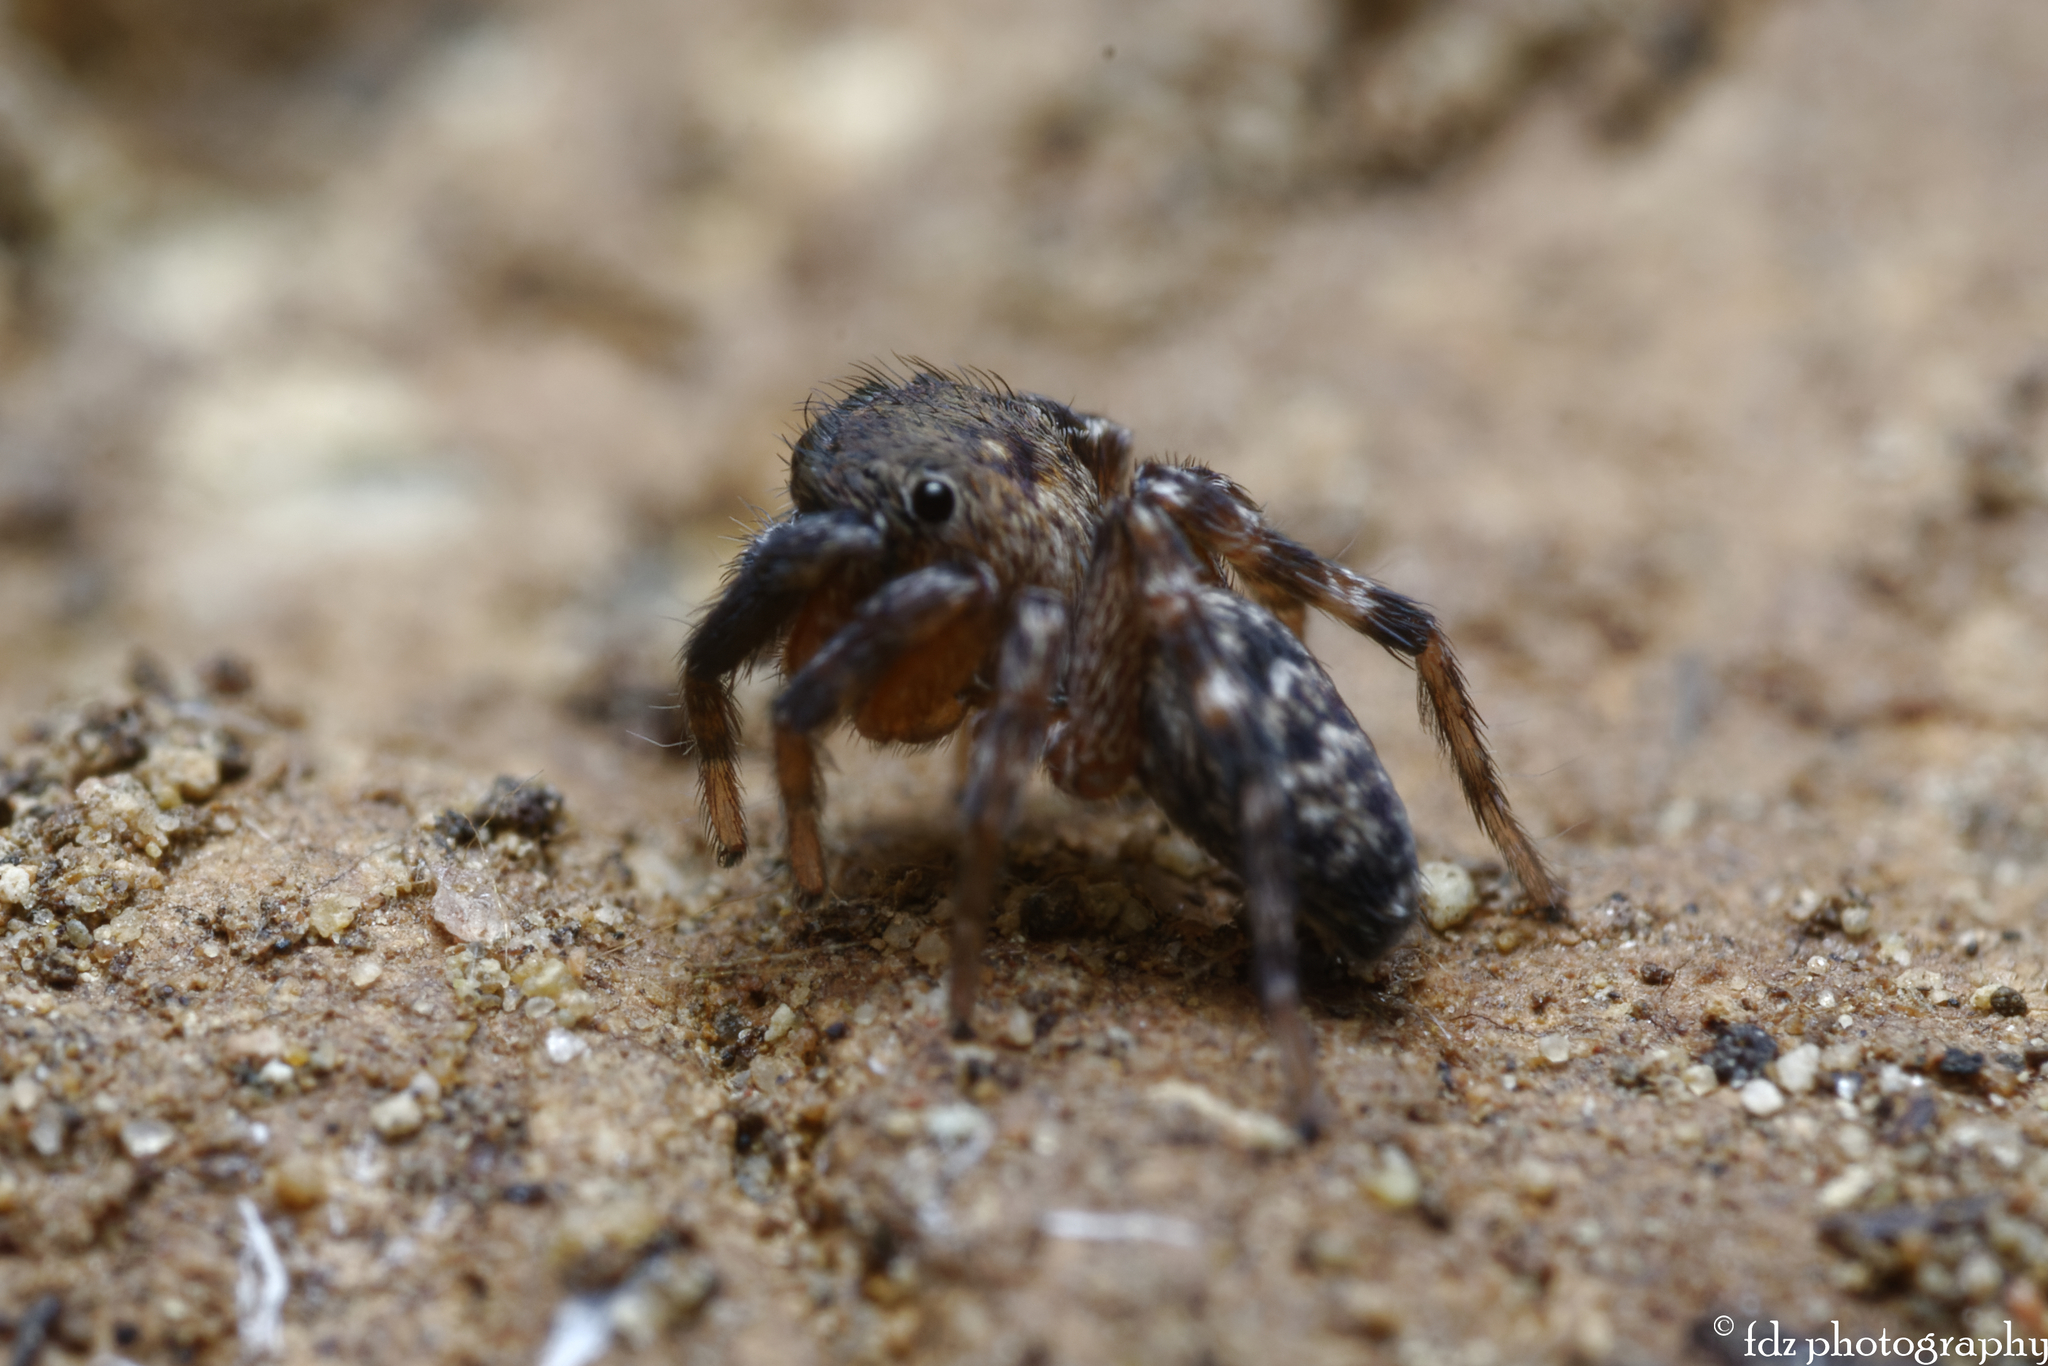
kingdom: Animalia
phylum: Arthropoda
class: Arachnida
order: Araneae
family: Salticidae
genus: Cyrba
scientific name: Cyrba algerina
